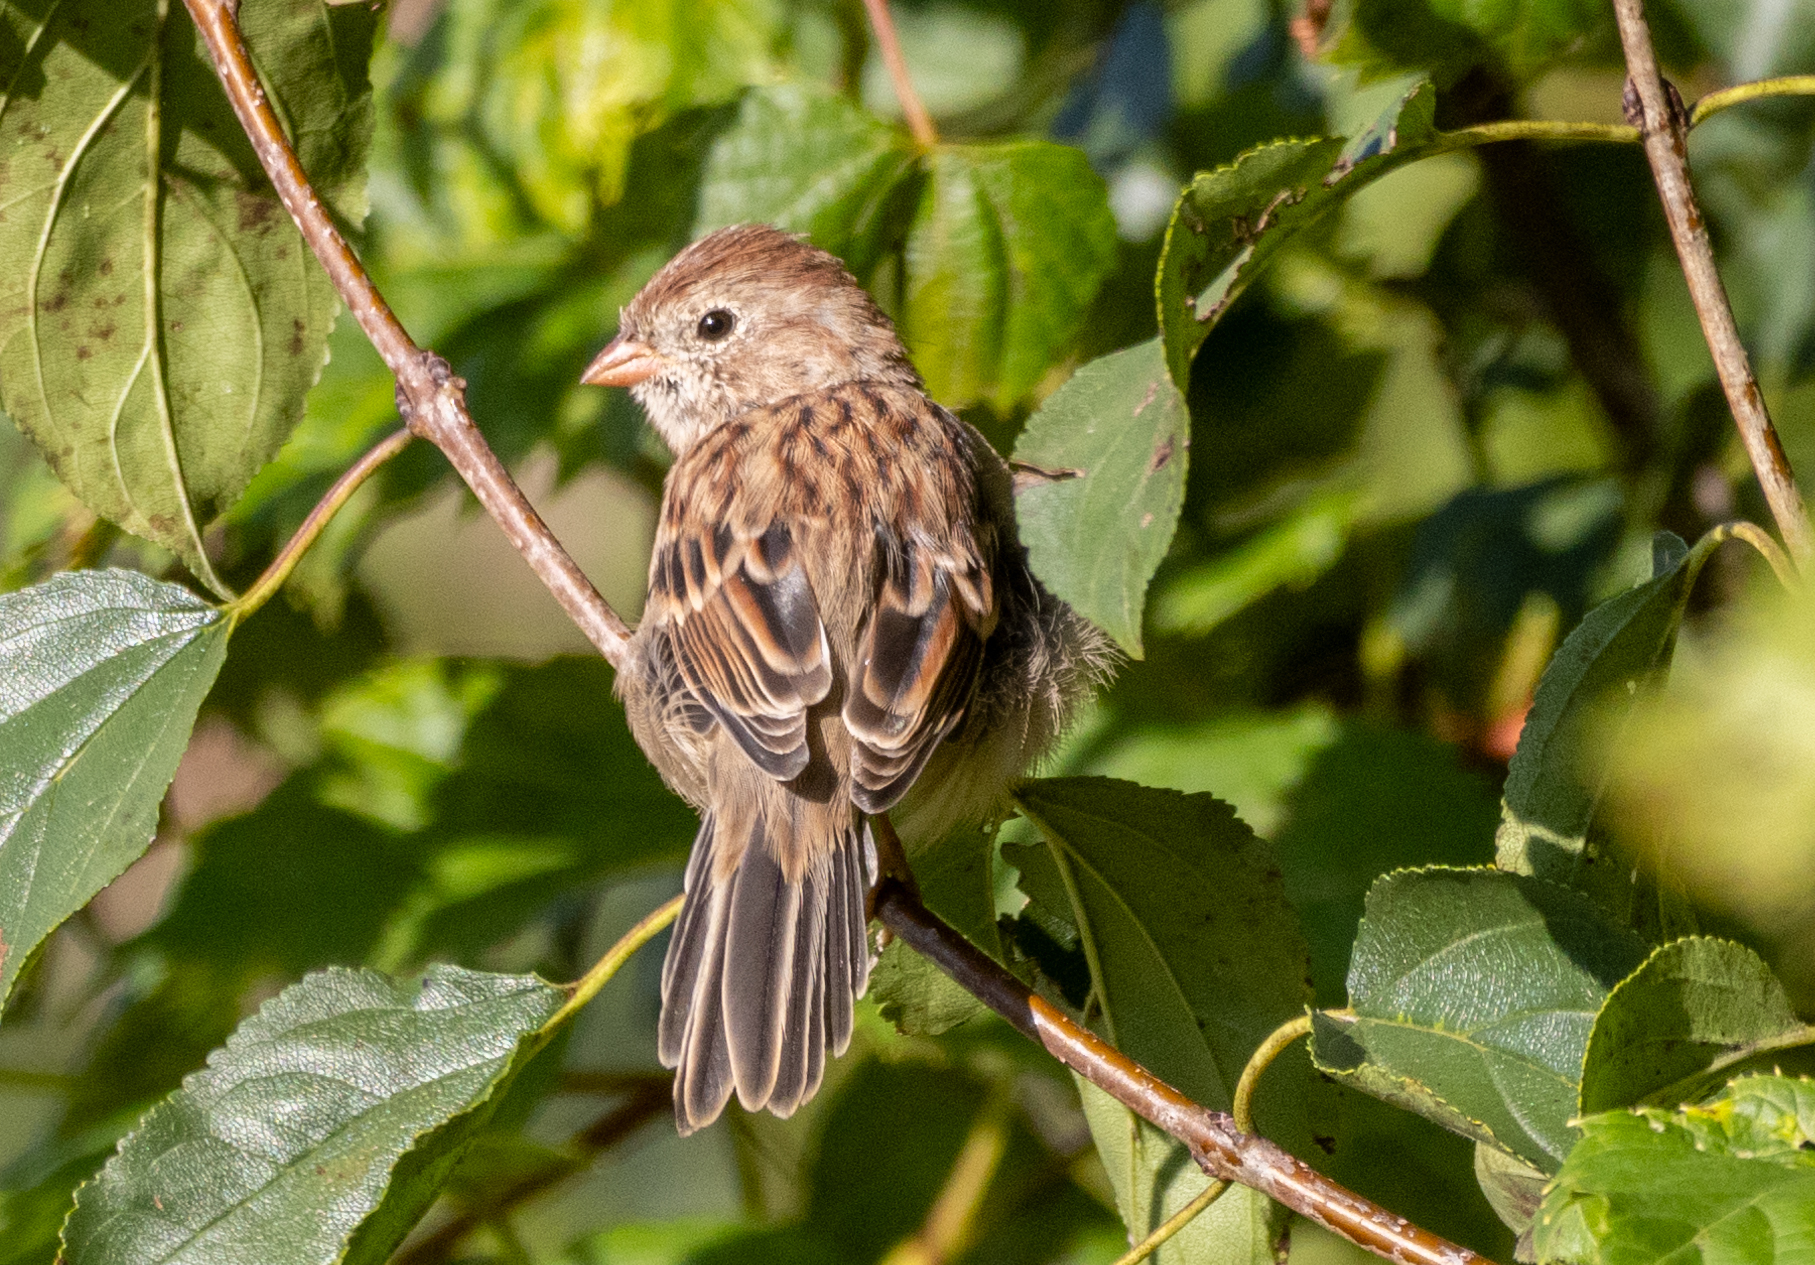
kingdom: Animalia
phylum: Chordata
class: Aves
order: Passeriformes
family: Passerellidae
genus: Spizella
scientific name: Spizella pusilla
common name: Field sparrow
